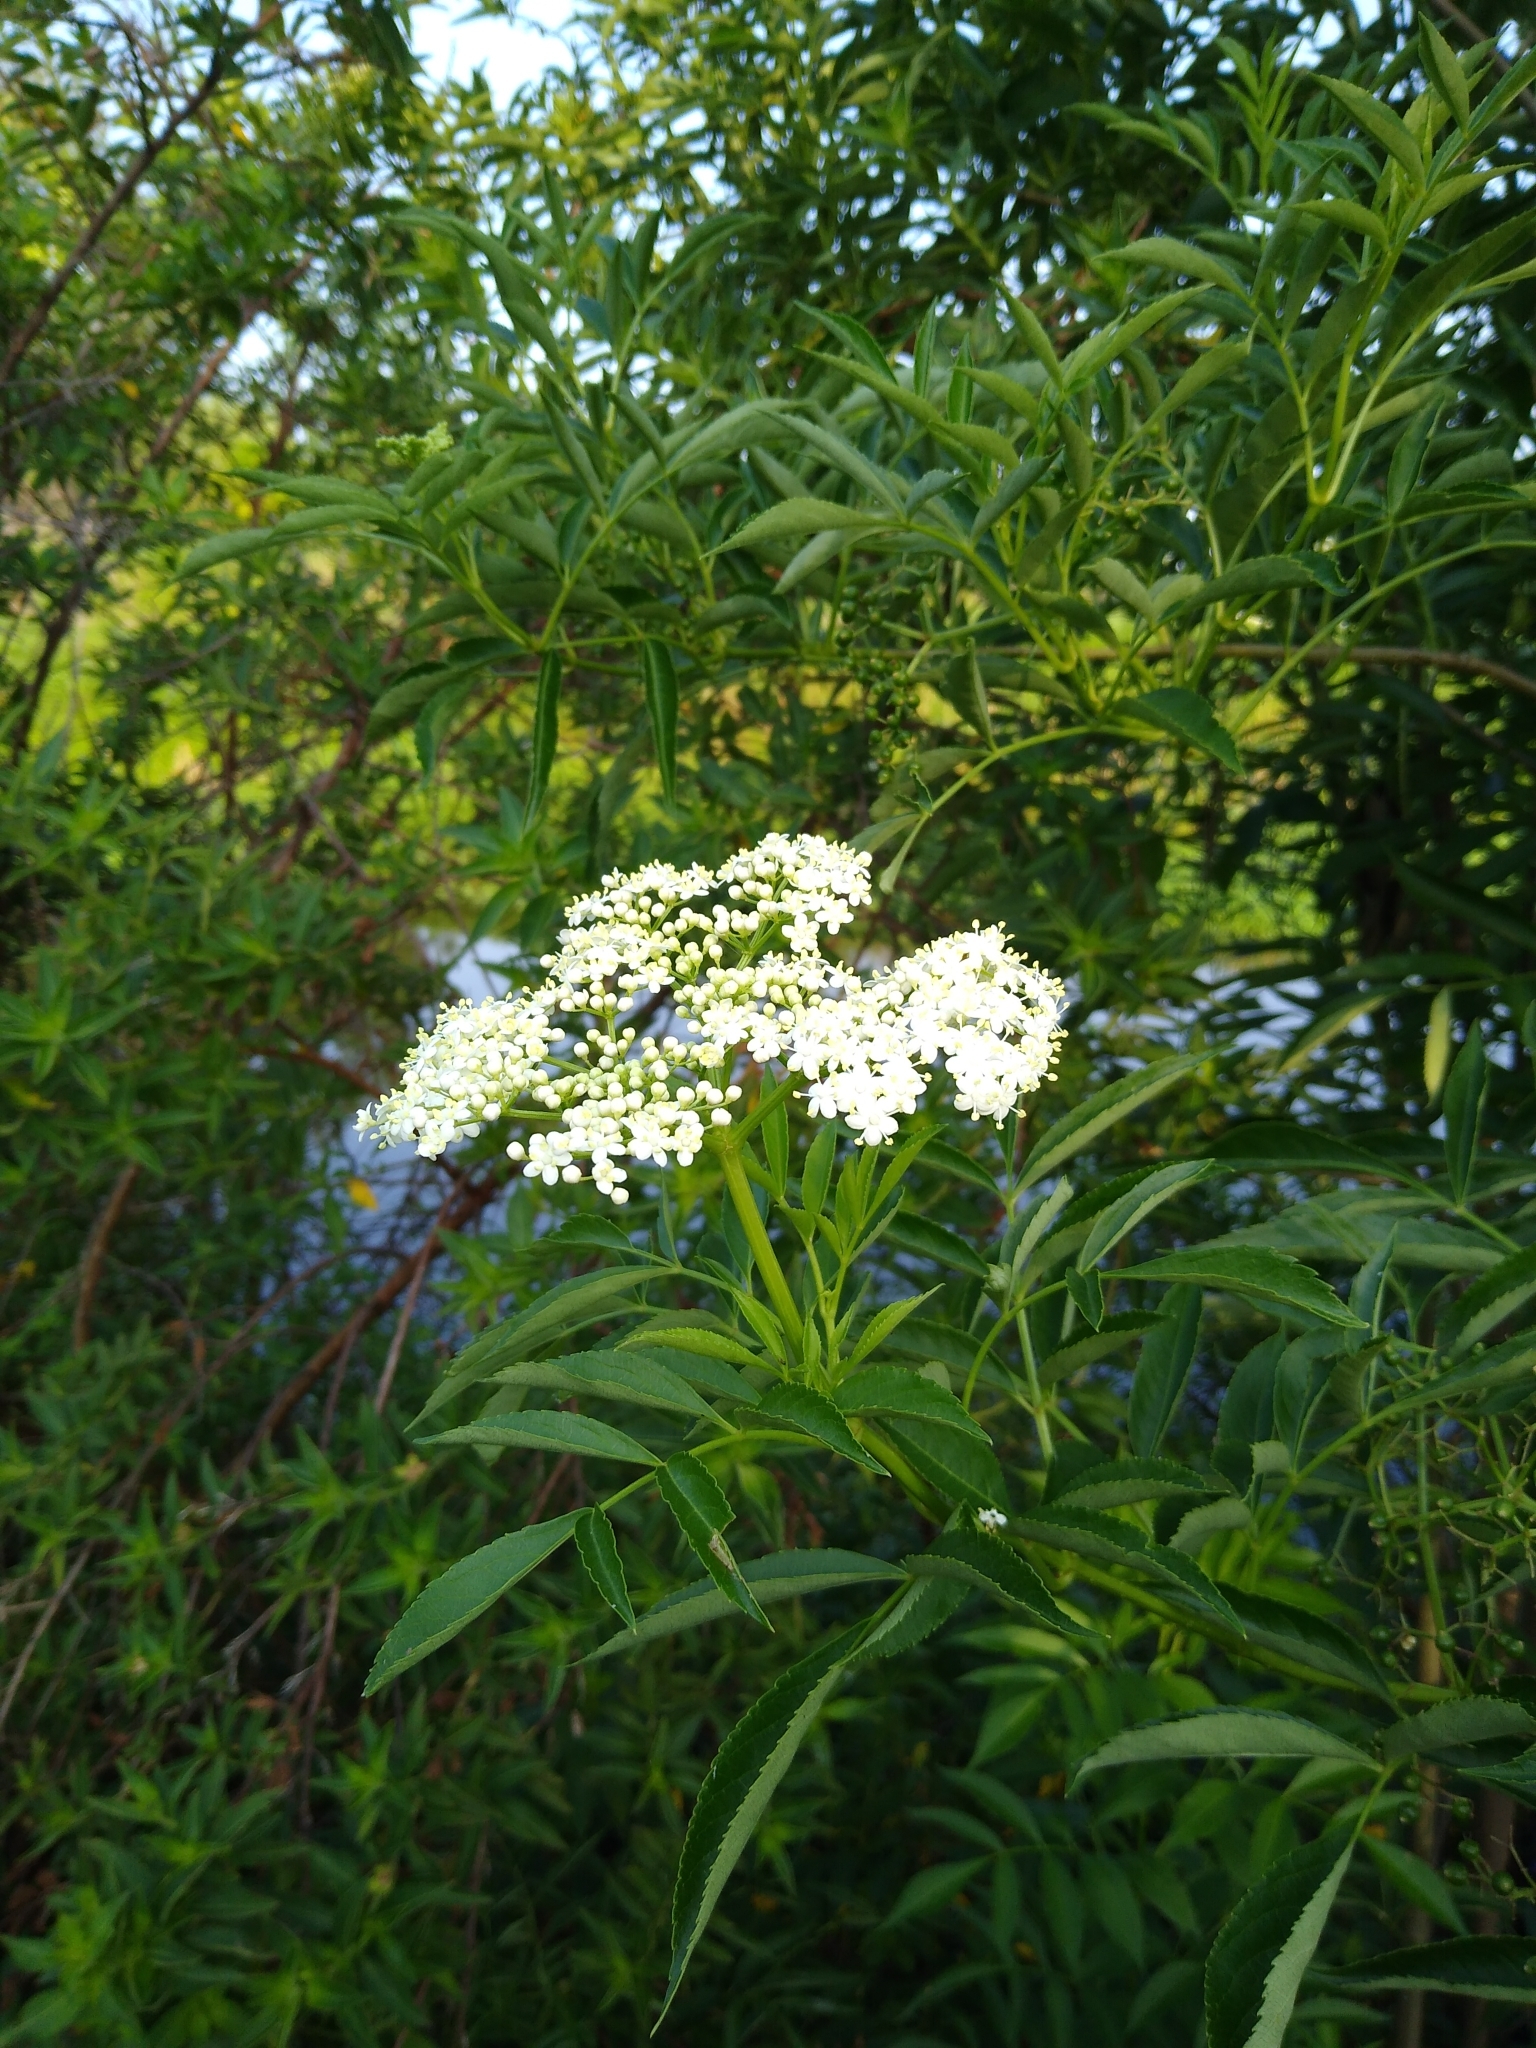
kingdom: Plantae
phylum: Tracheophyta
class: Magnoliopsida
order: Dipsacales
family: Viburnaceae
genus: Sambucus
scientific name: Sambucus canadensis
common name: American elder
